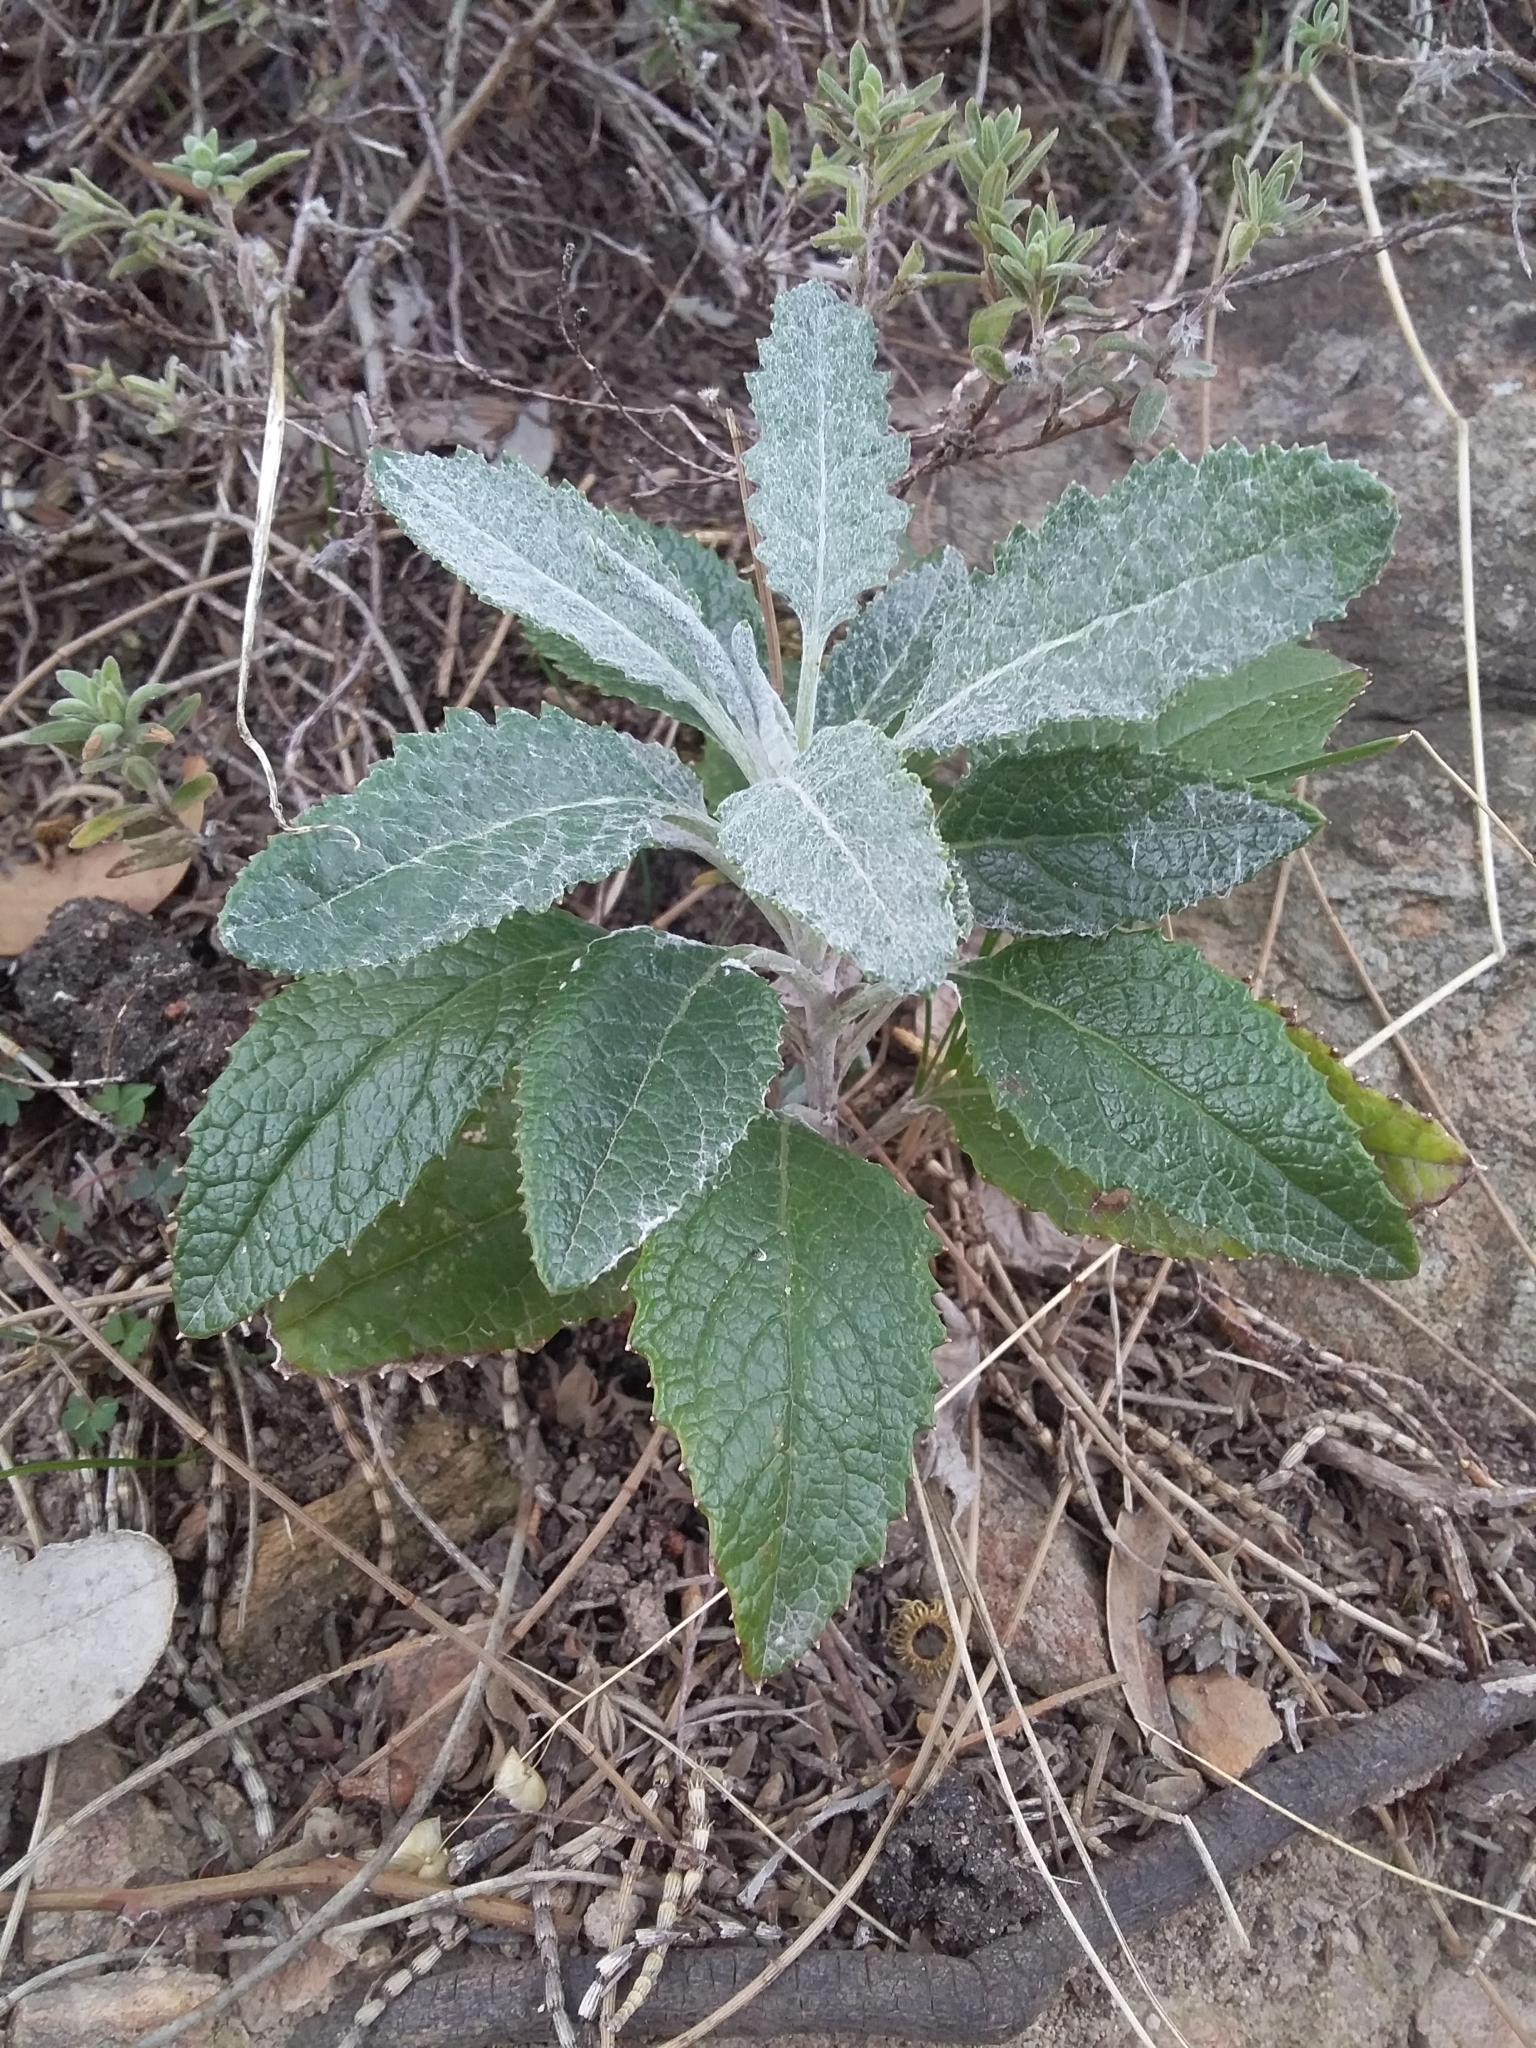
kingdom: Plantae
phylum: Tracheophyta
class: Magnoliopsida
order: Asterales
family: Asteraceae
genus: Senecio
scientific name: Senecio hypoleucus
